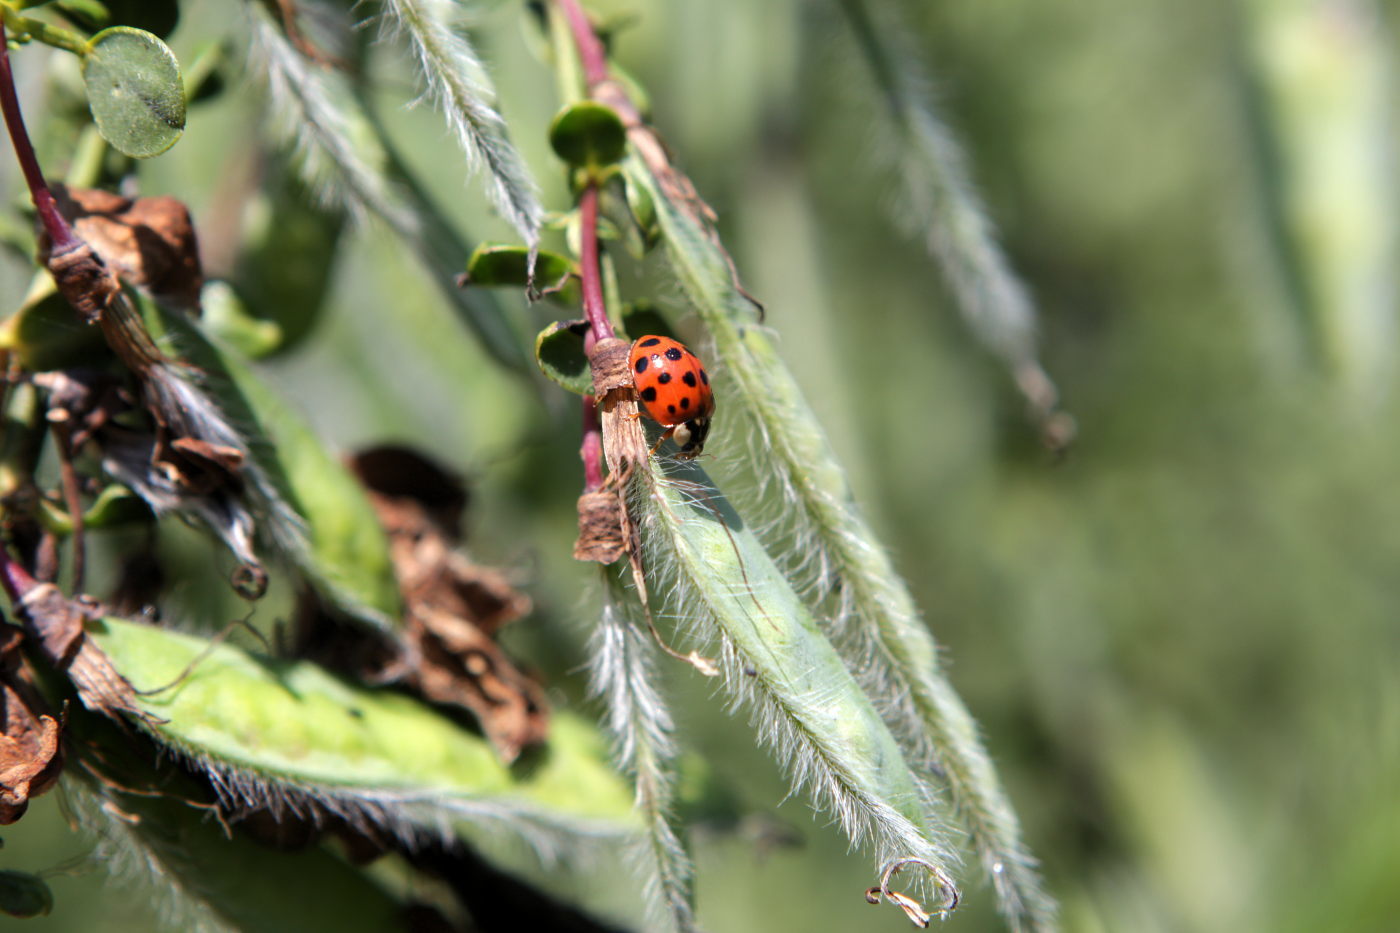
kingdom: Animalia
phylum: Arthropoda
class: Insecta
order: Coleoptera
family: Coccinellidae
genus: Harmonia
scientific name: Harmonia axyridis
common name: Harlequin ladybird
